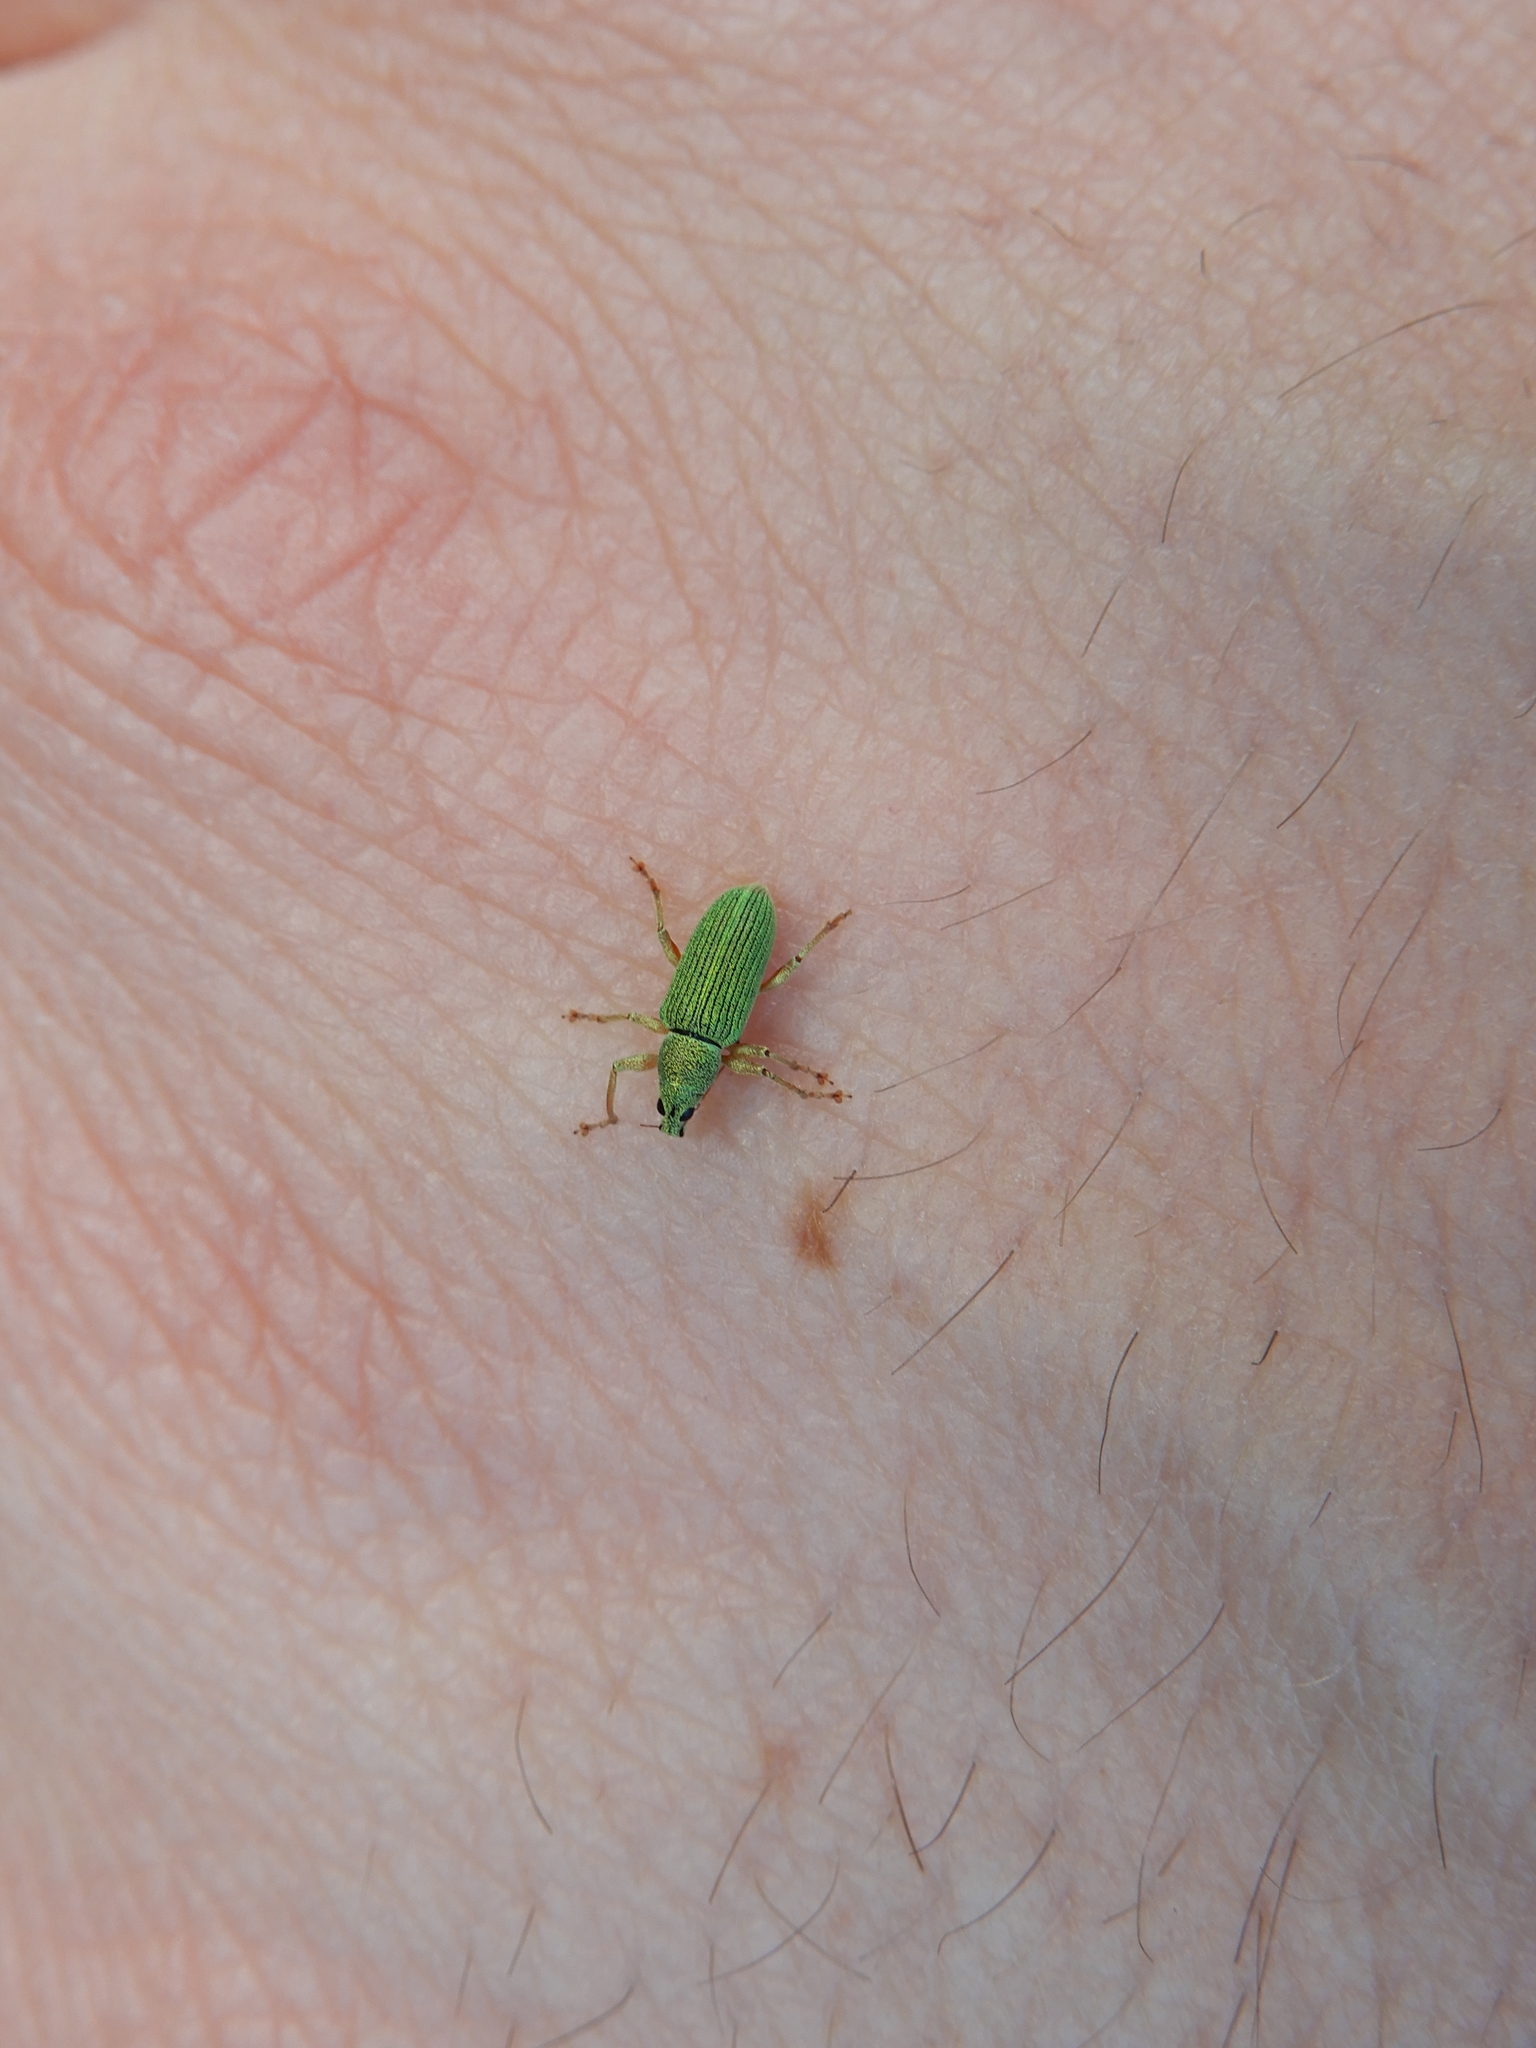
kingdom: Animalia
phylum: Arthropoda
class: Insecta
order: Coleoptera
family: Curculionidae
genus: Polydrusus
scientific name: Polydrusus formosus
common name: Weevil
